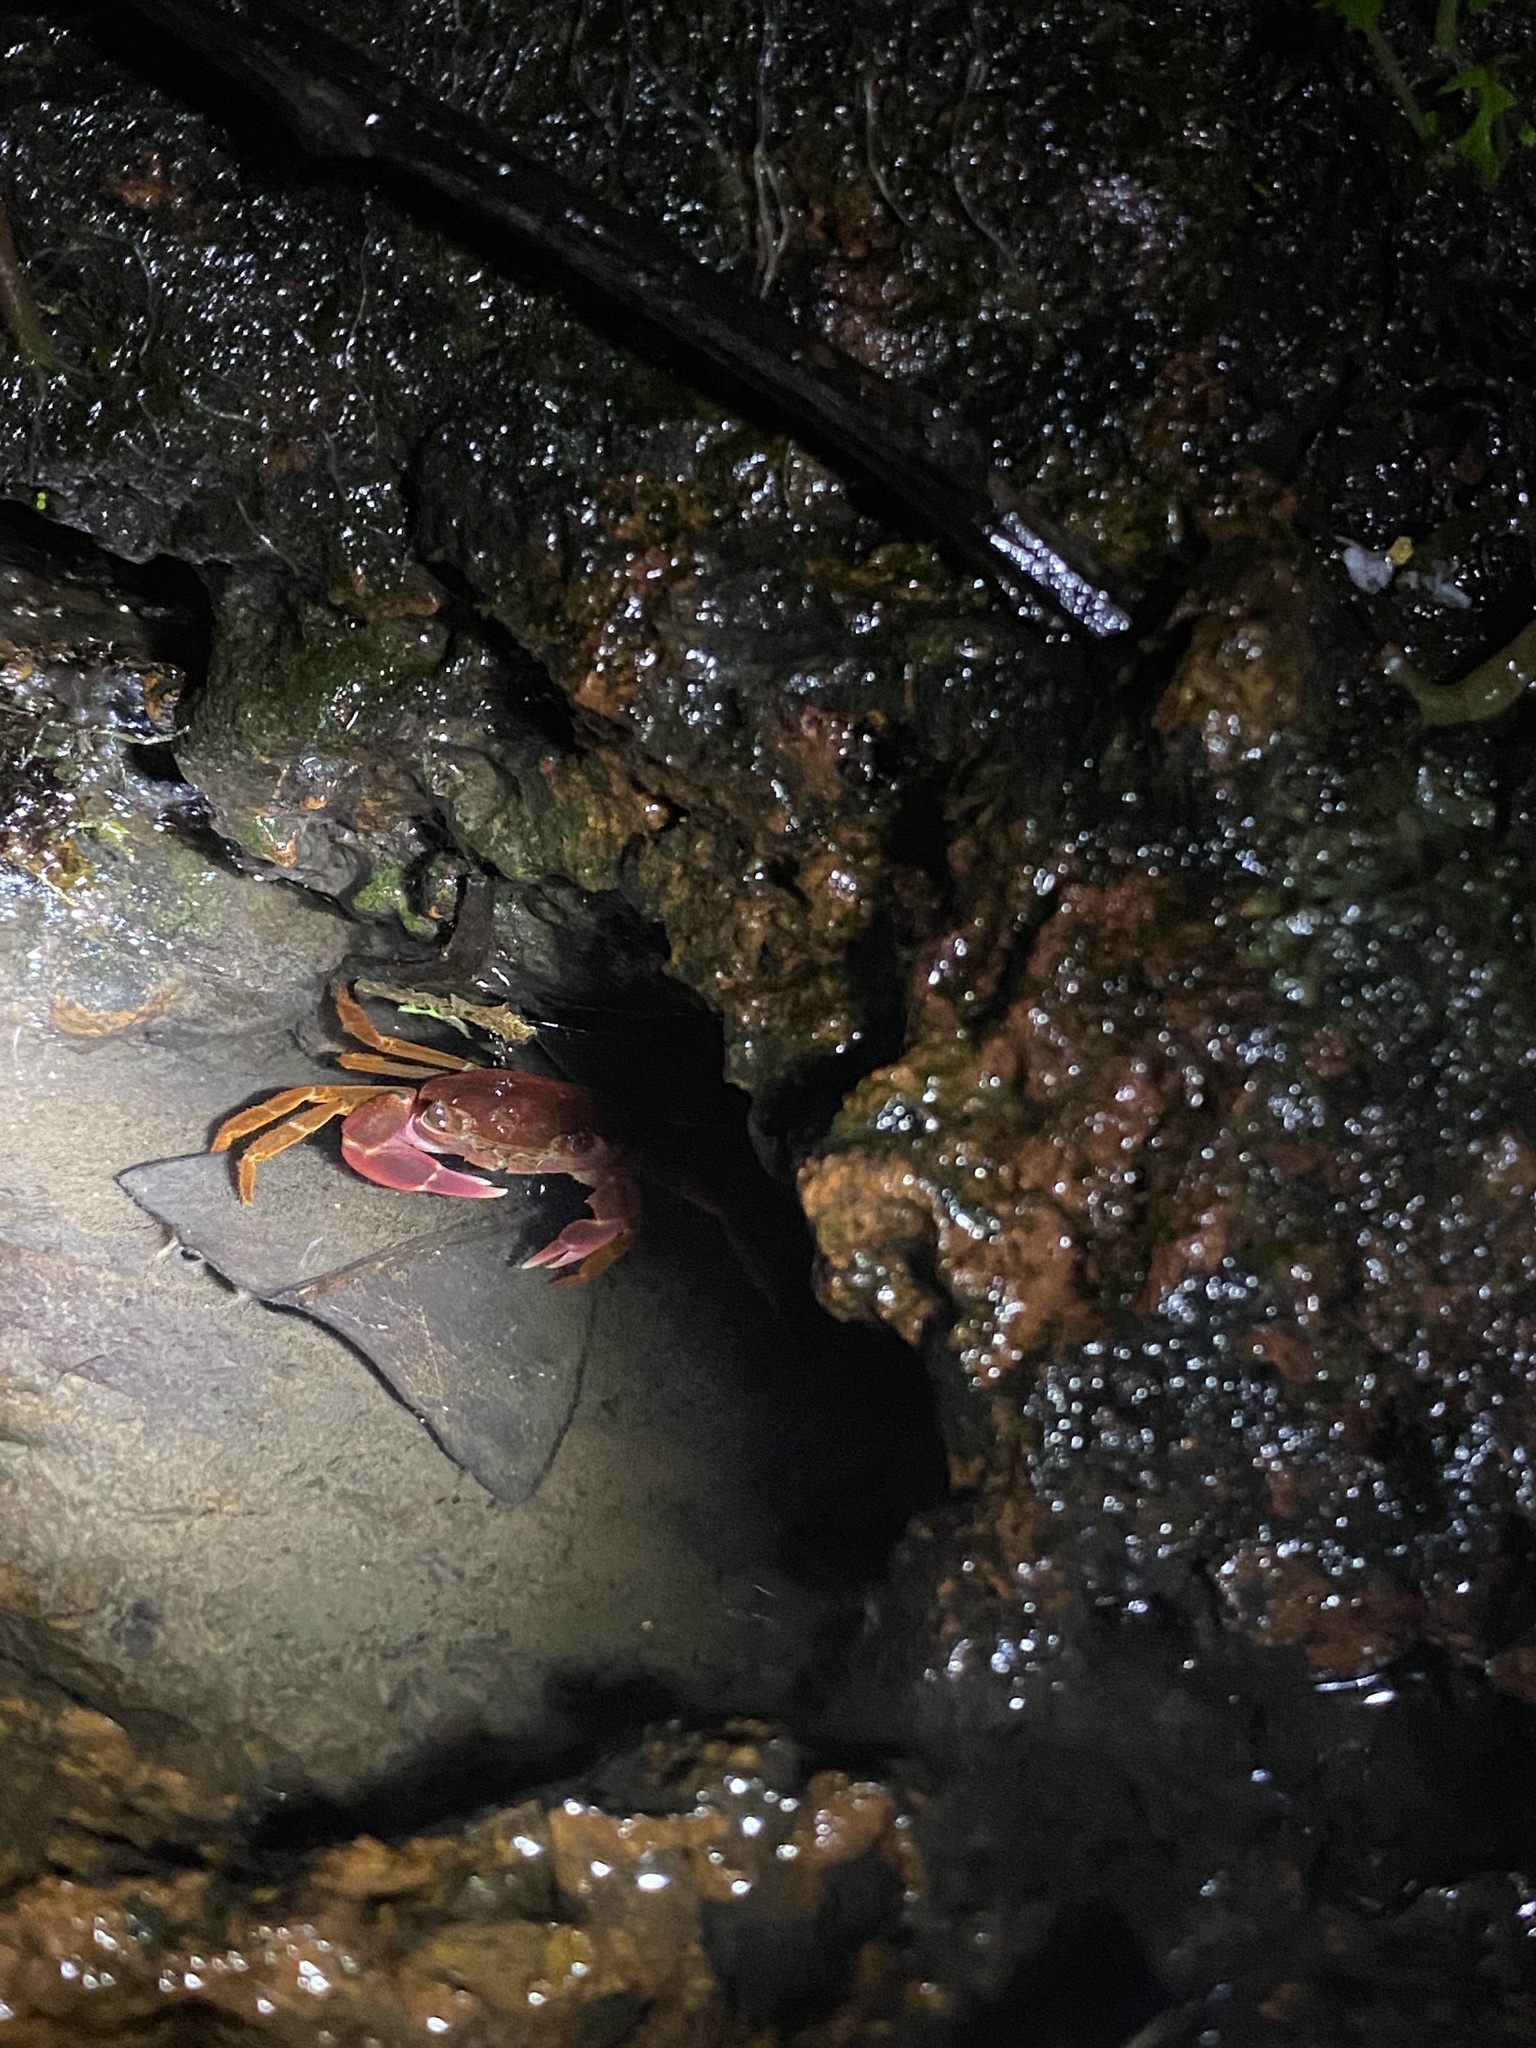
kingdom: Animalia
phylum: Arthropoda
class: Malacostraca
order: Decapoda
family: Gecarcinucidae
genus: Ghatiana
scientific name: Ghatiana splendida
